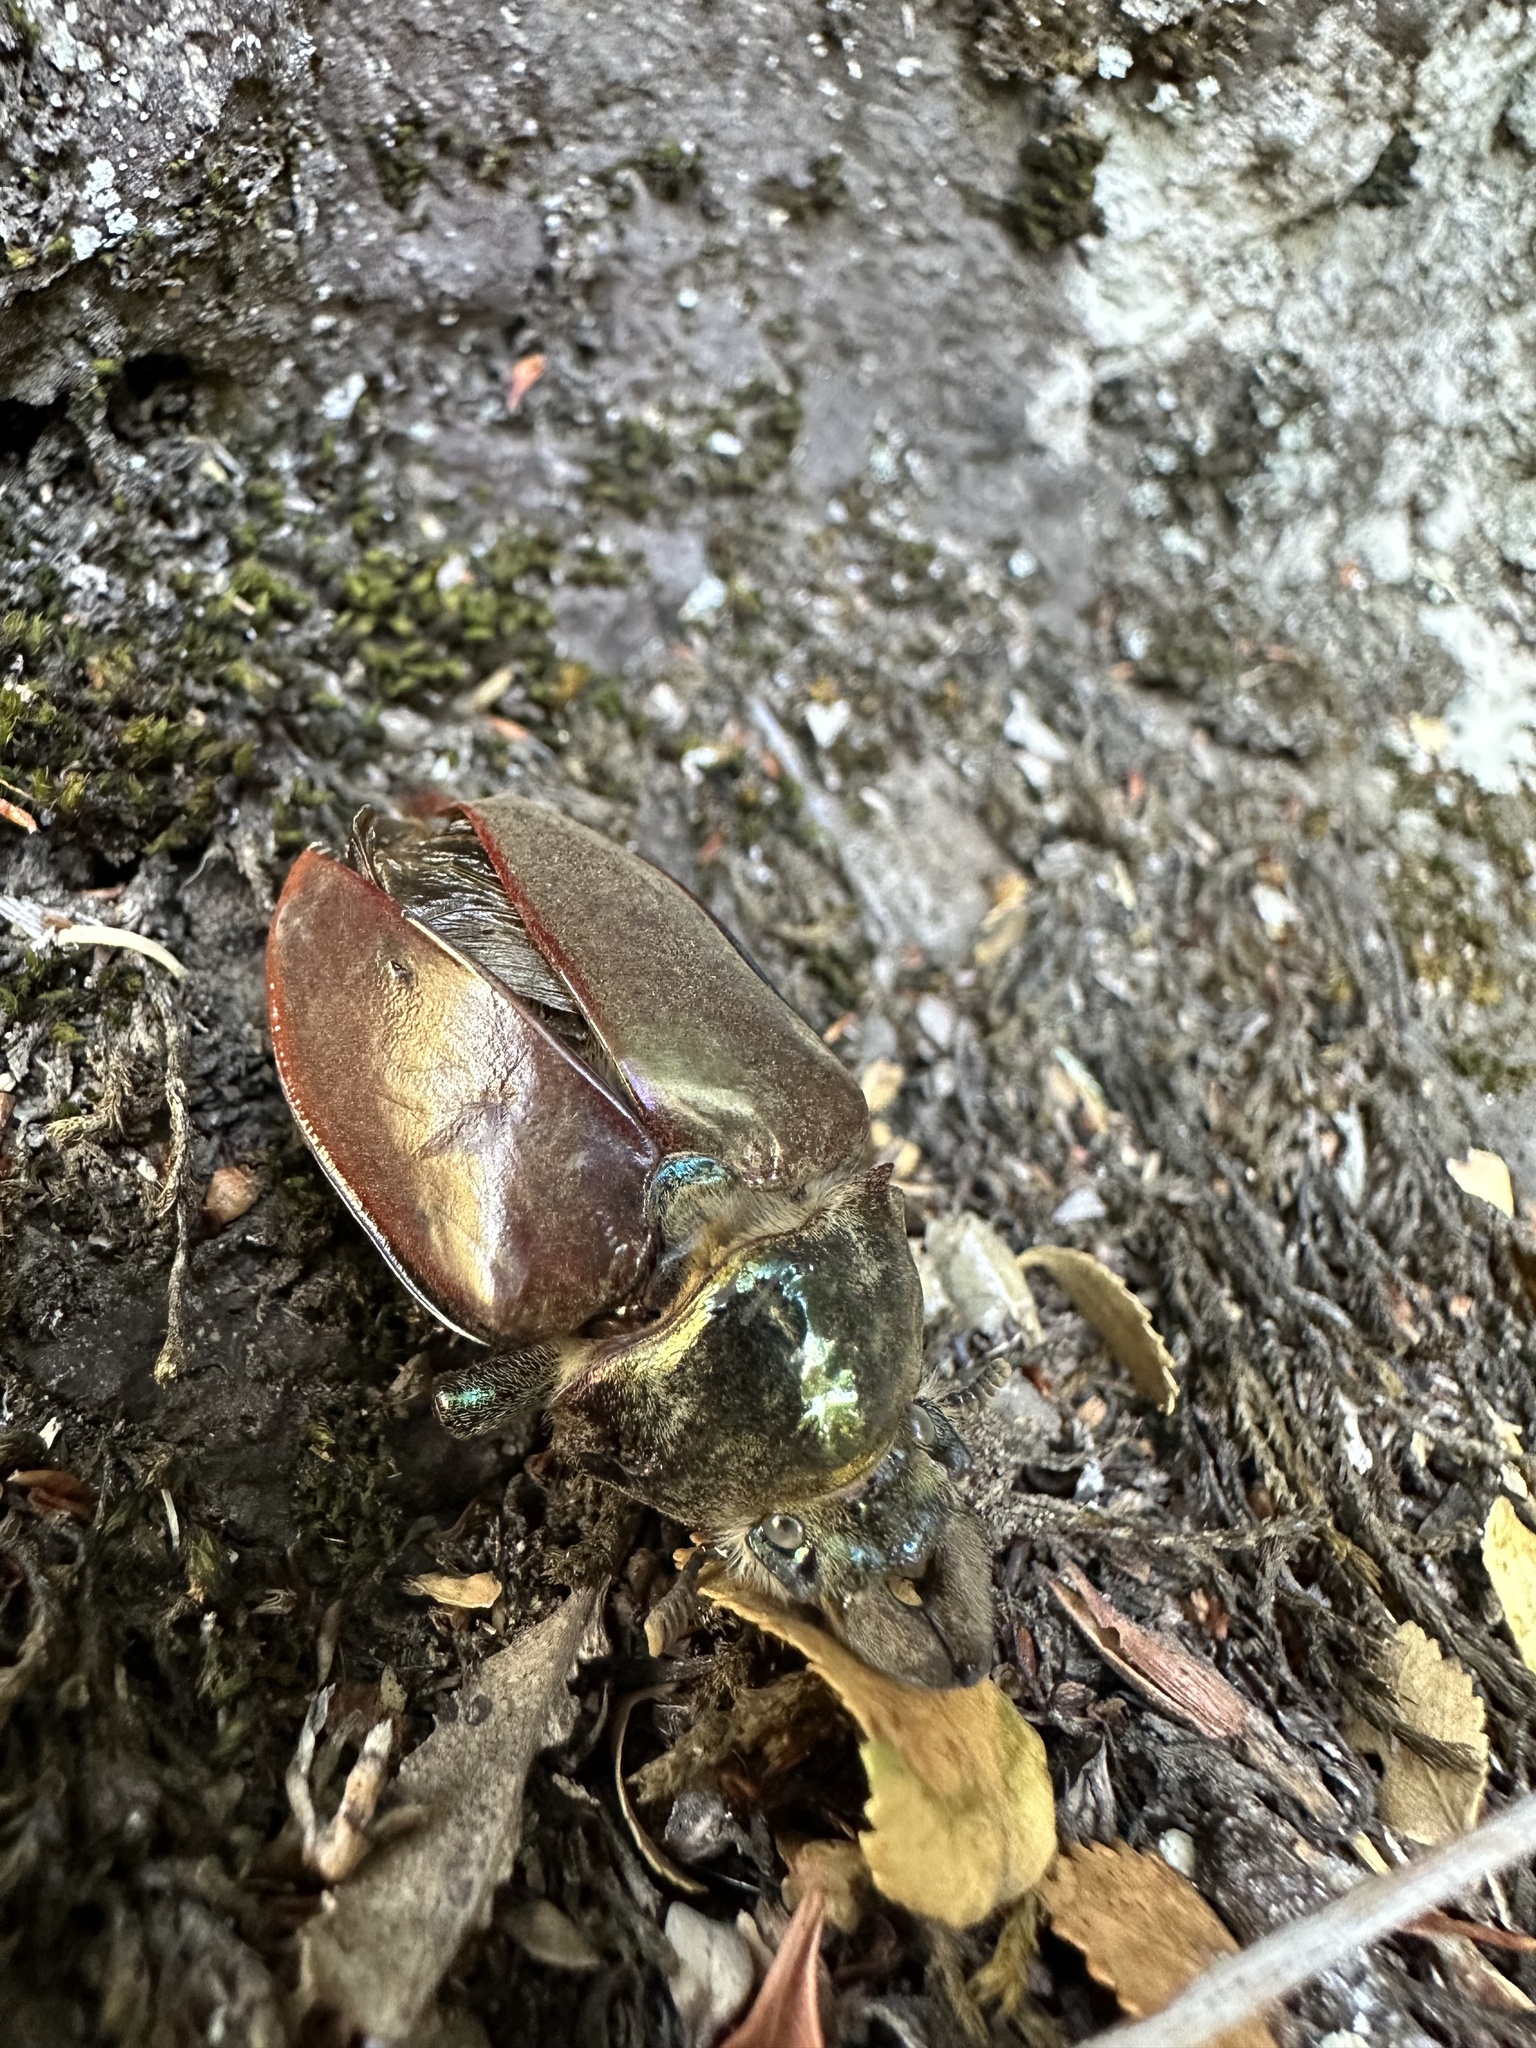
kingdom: Animalia
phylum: Arthropoda
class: Insecta
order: Coleoptera
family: Lucanidae
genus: Chiasognathus
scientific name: Chiasognathus grantii
